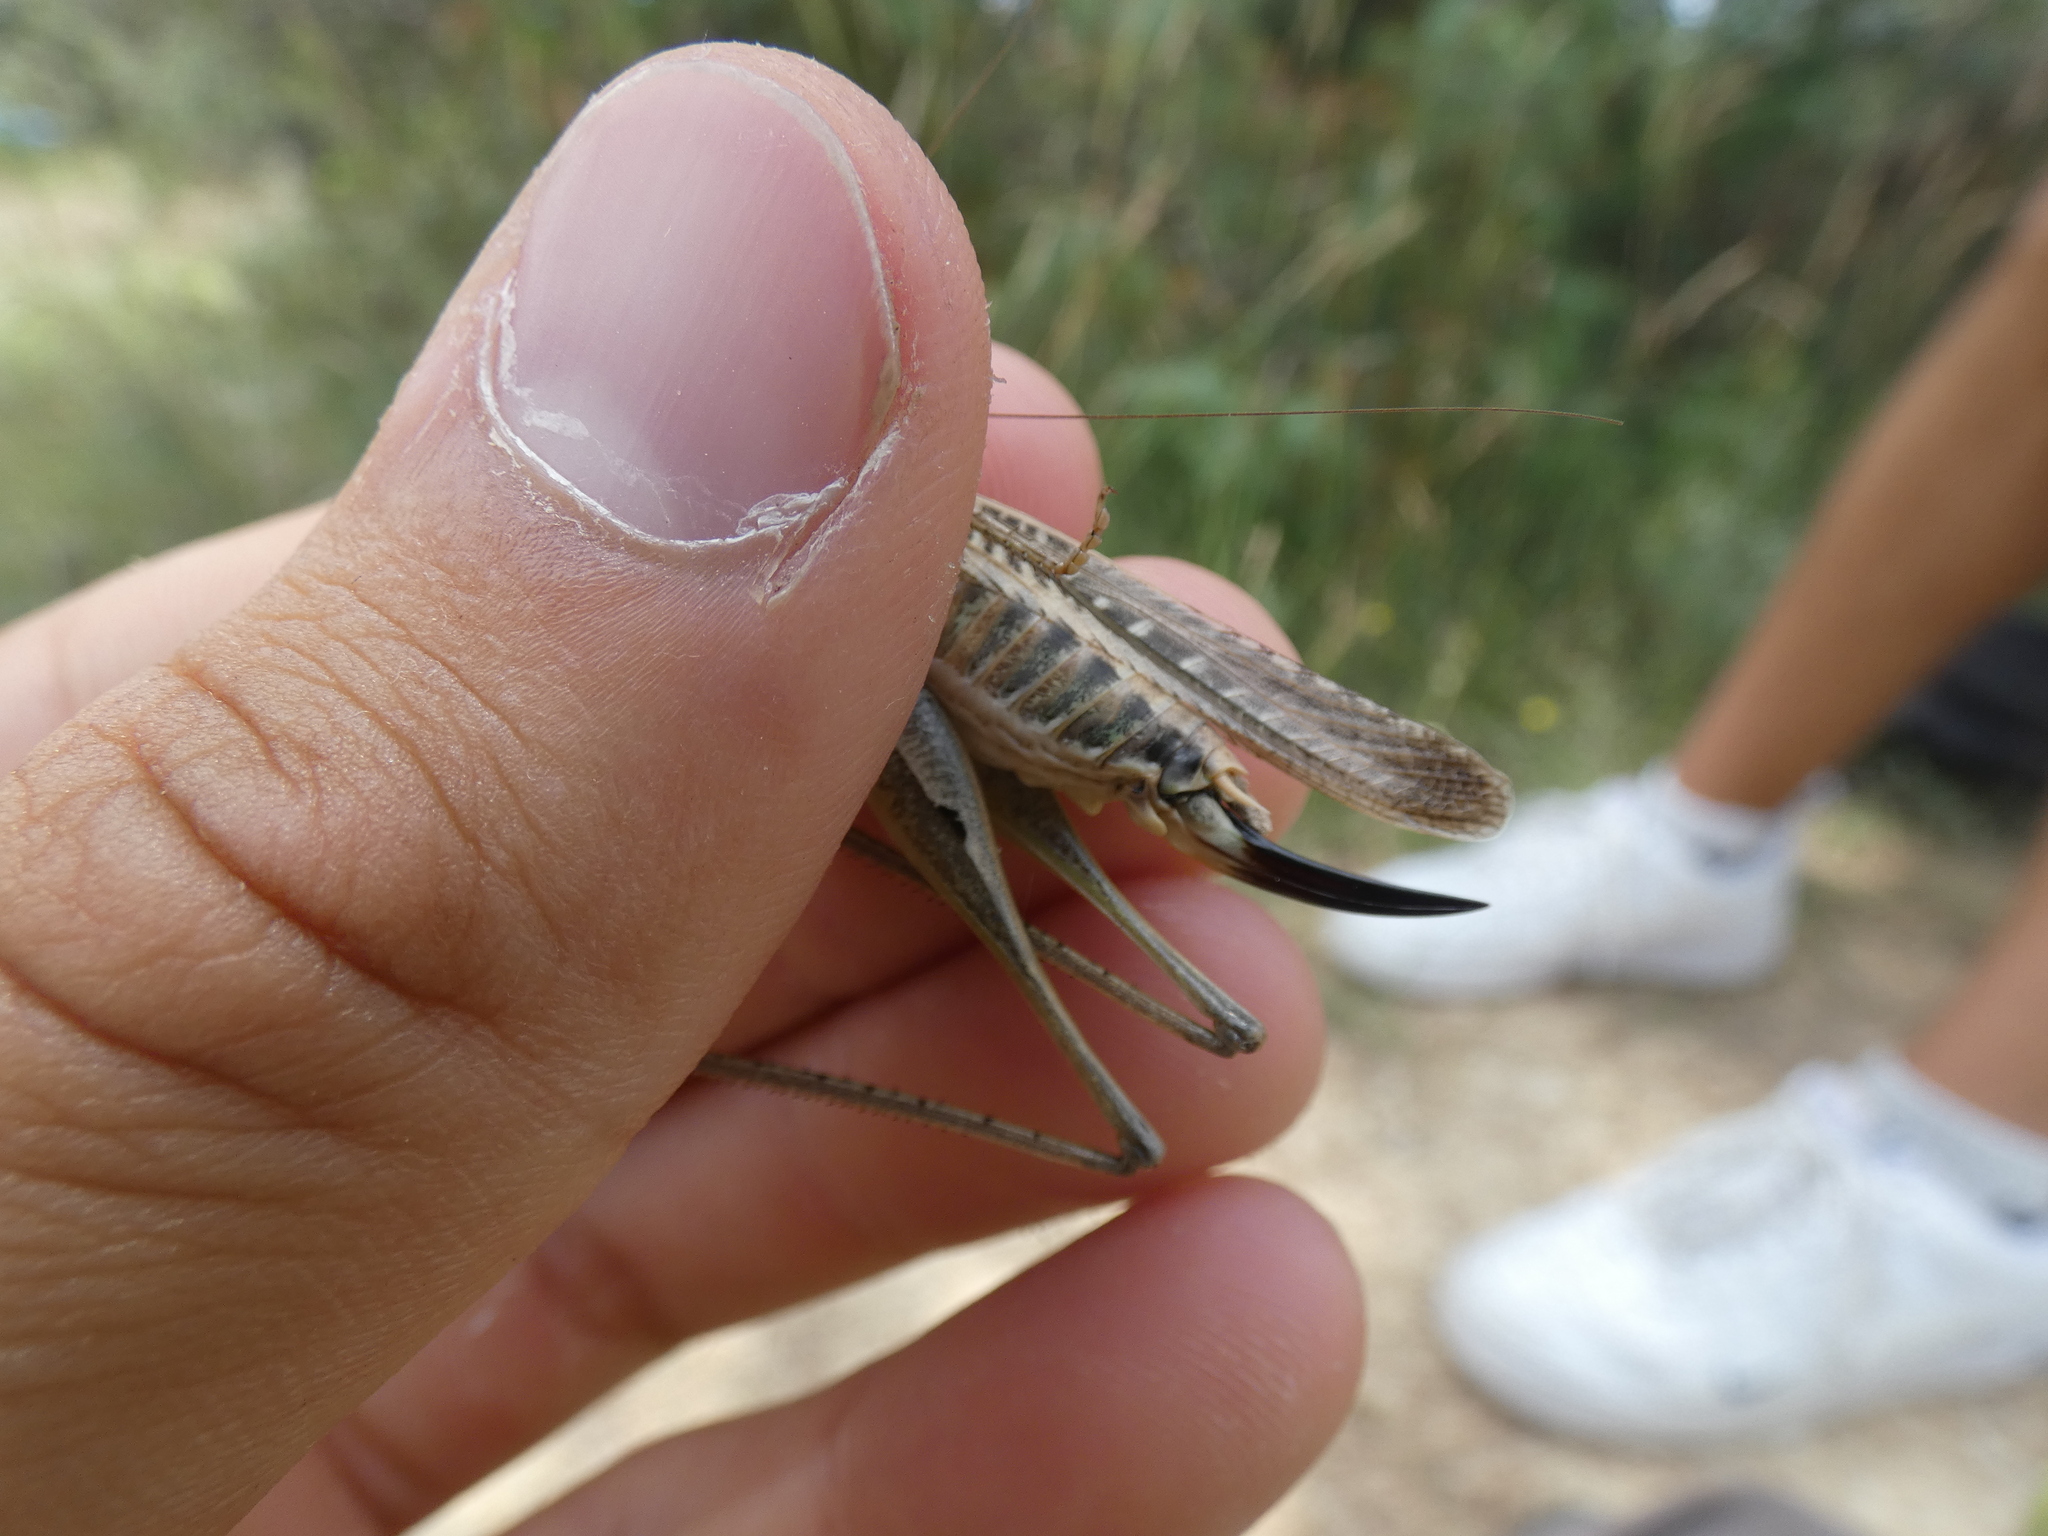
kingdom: Animalia
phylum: Arthropoda
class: Insecta
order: Orthoptera
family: Tettigoniidae
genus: Platycleis
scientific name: Platycleis affinis
